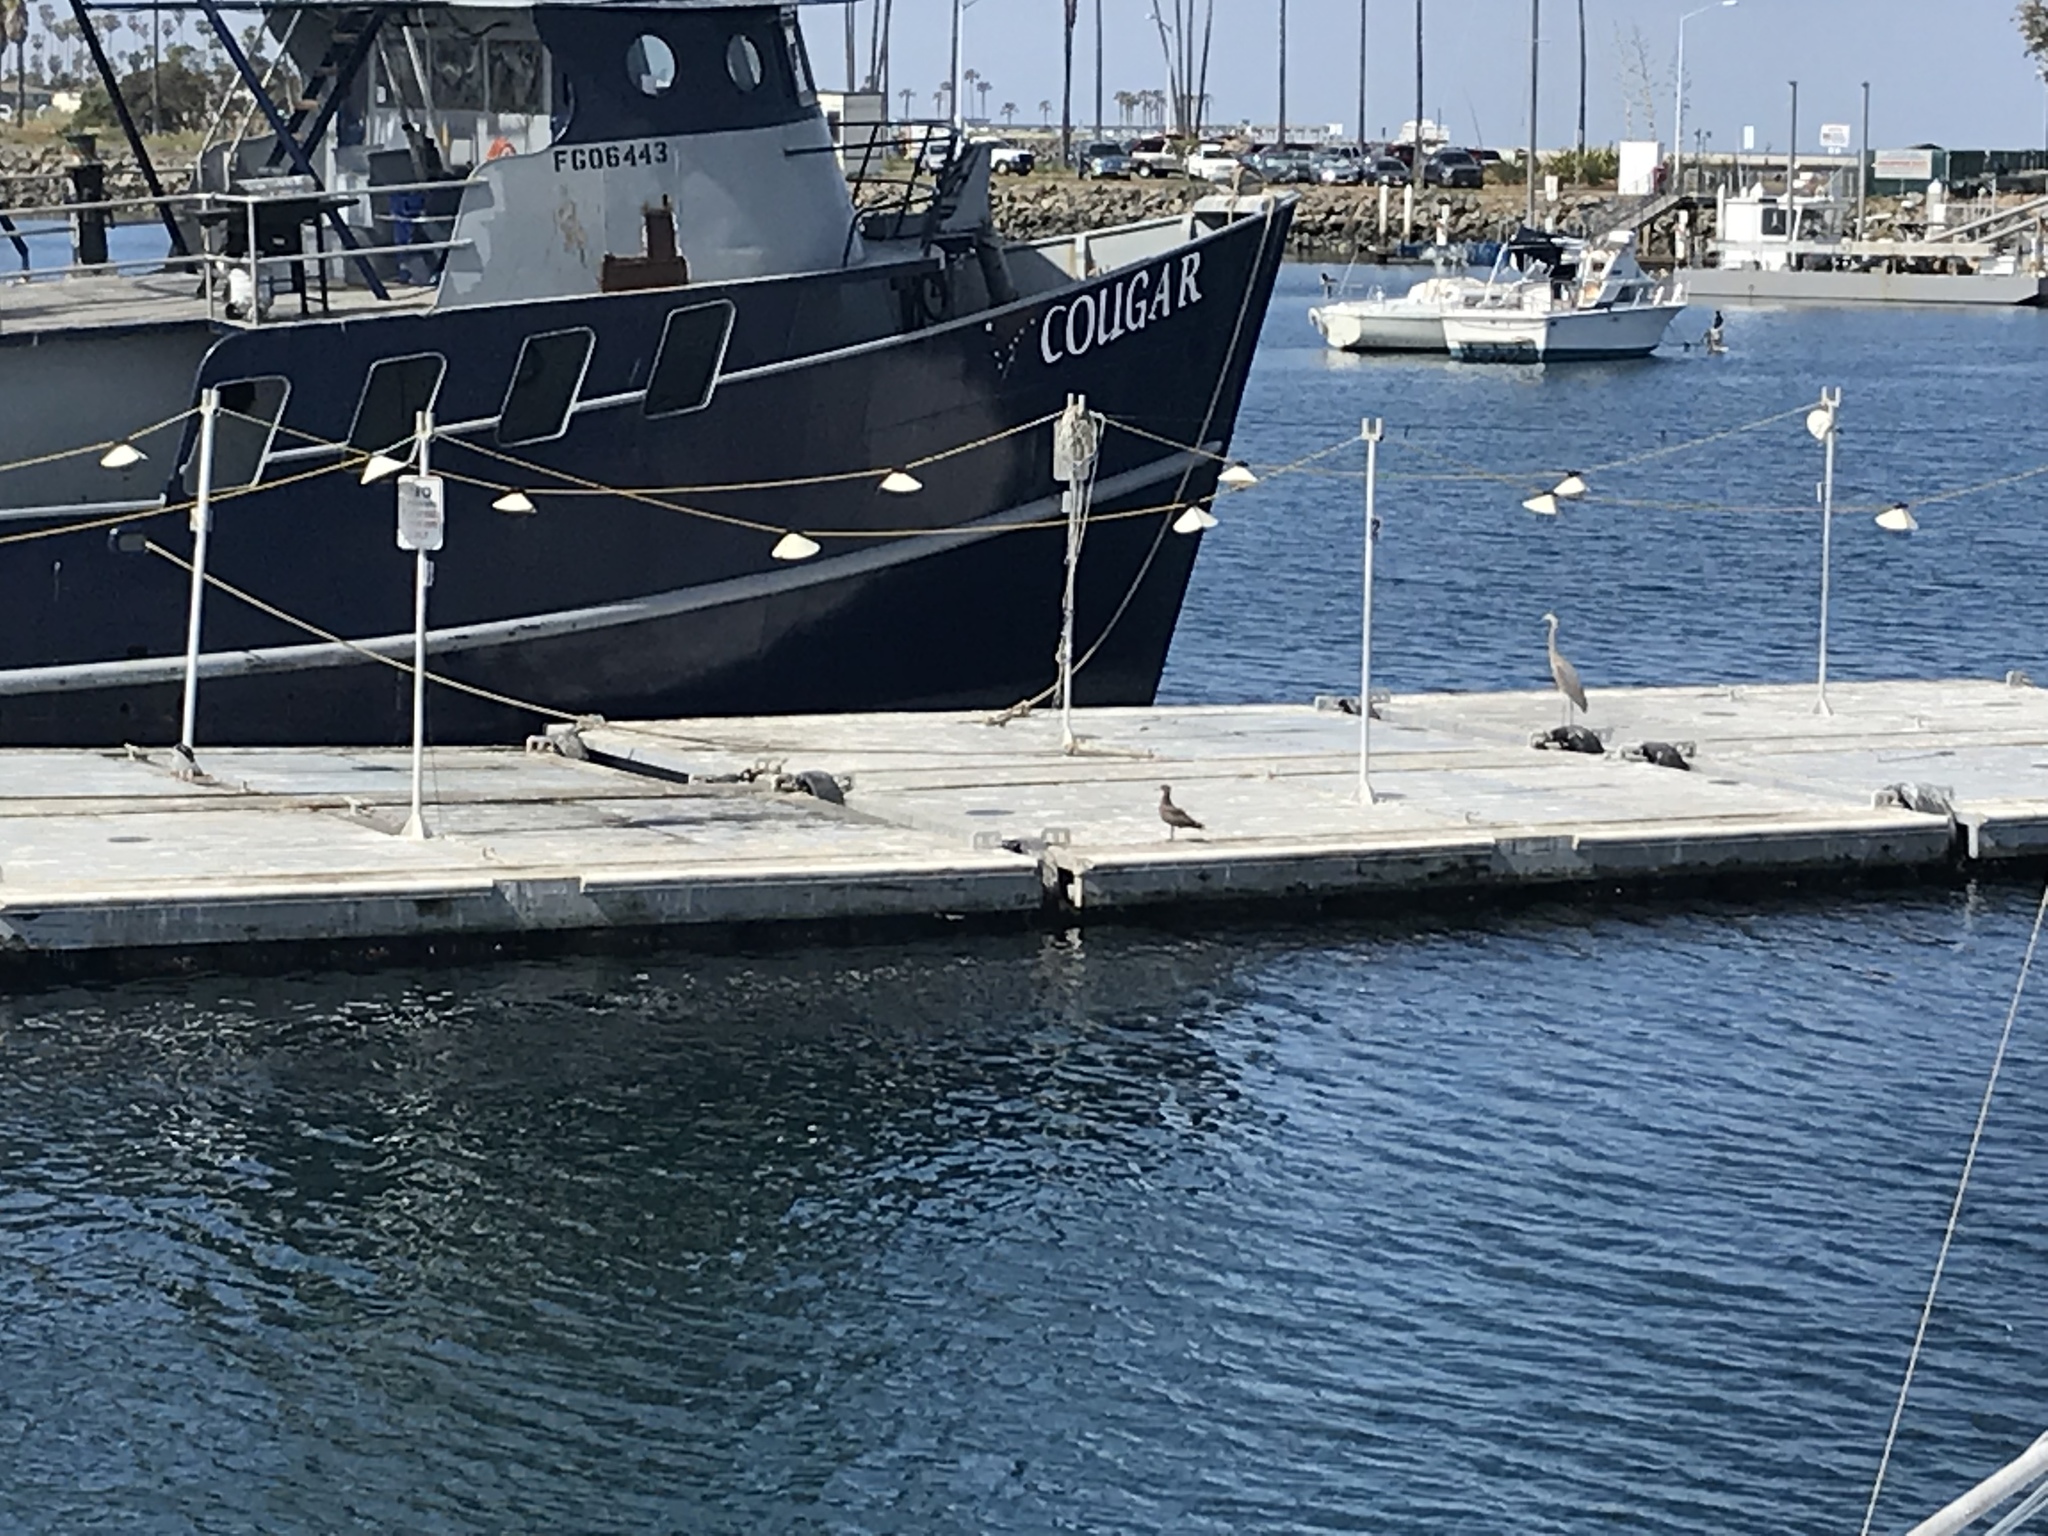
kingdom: Animalia
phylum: Chordata
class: Aves
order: Pelecaniformes
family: Ardeidae
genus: Ardea
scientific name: Ardea herodias
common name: Great blue heron
